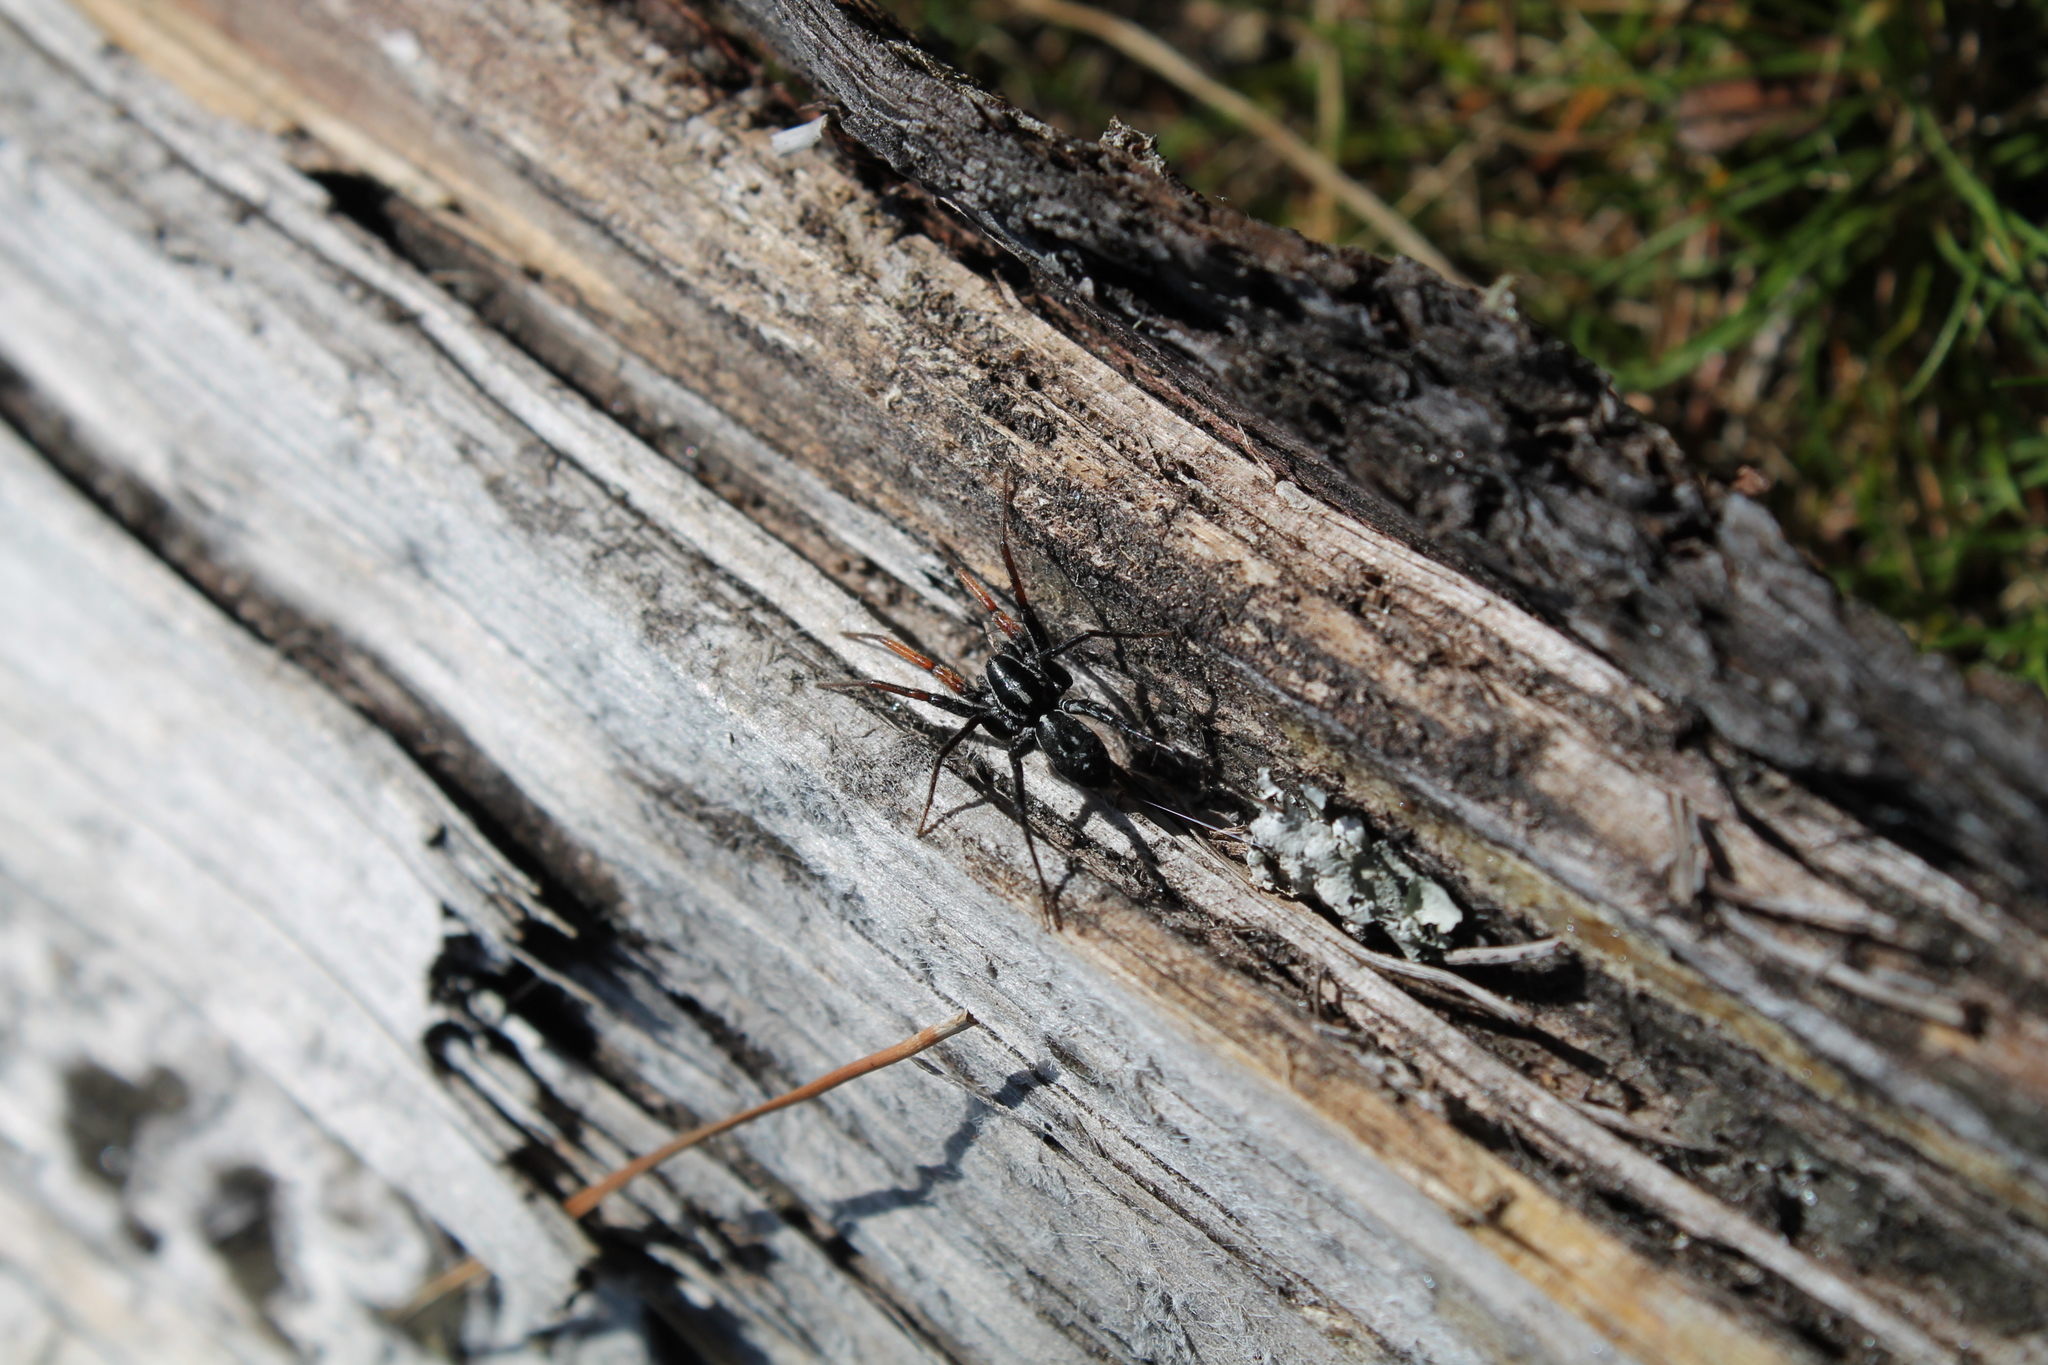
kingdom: Animalia
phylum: Arthropoda
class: Arachnida
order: Araneae
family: Corinnidae
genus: Nyssus
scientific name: Nyssus coloripes
